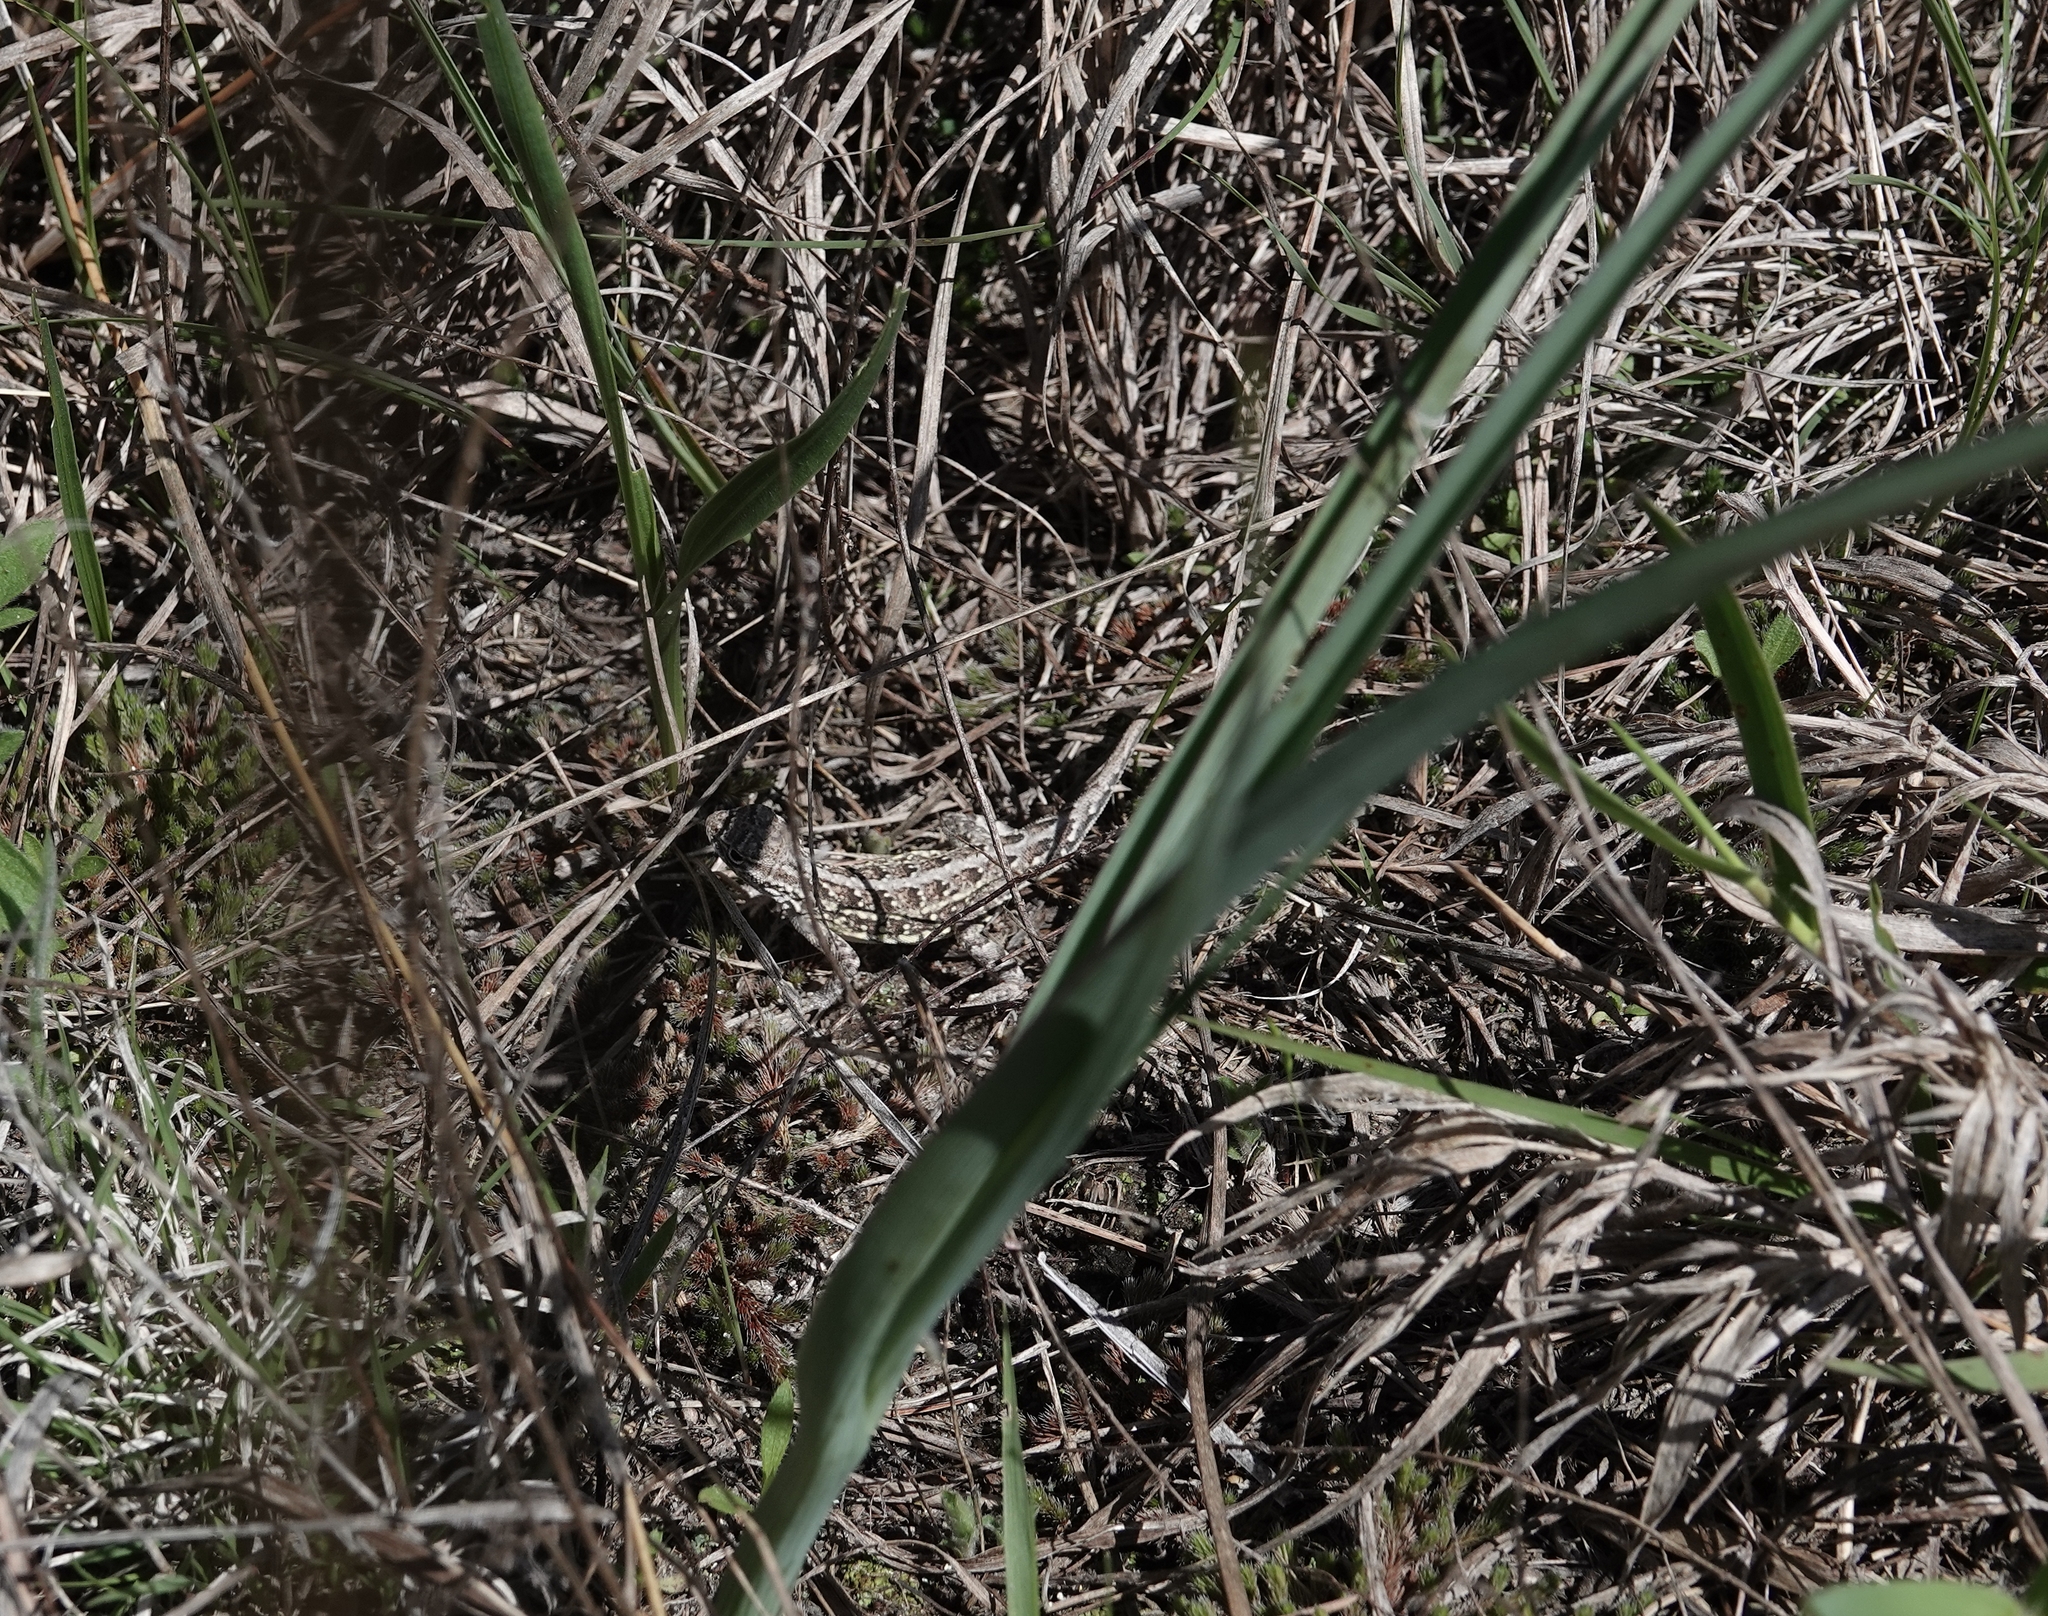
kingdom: Animalia
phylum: Chordata
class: Squamata
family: Phrynosomatidae
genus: Holbrookia
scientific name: Holbrookia maculata
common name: Lesser earless lizard
